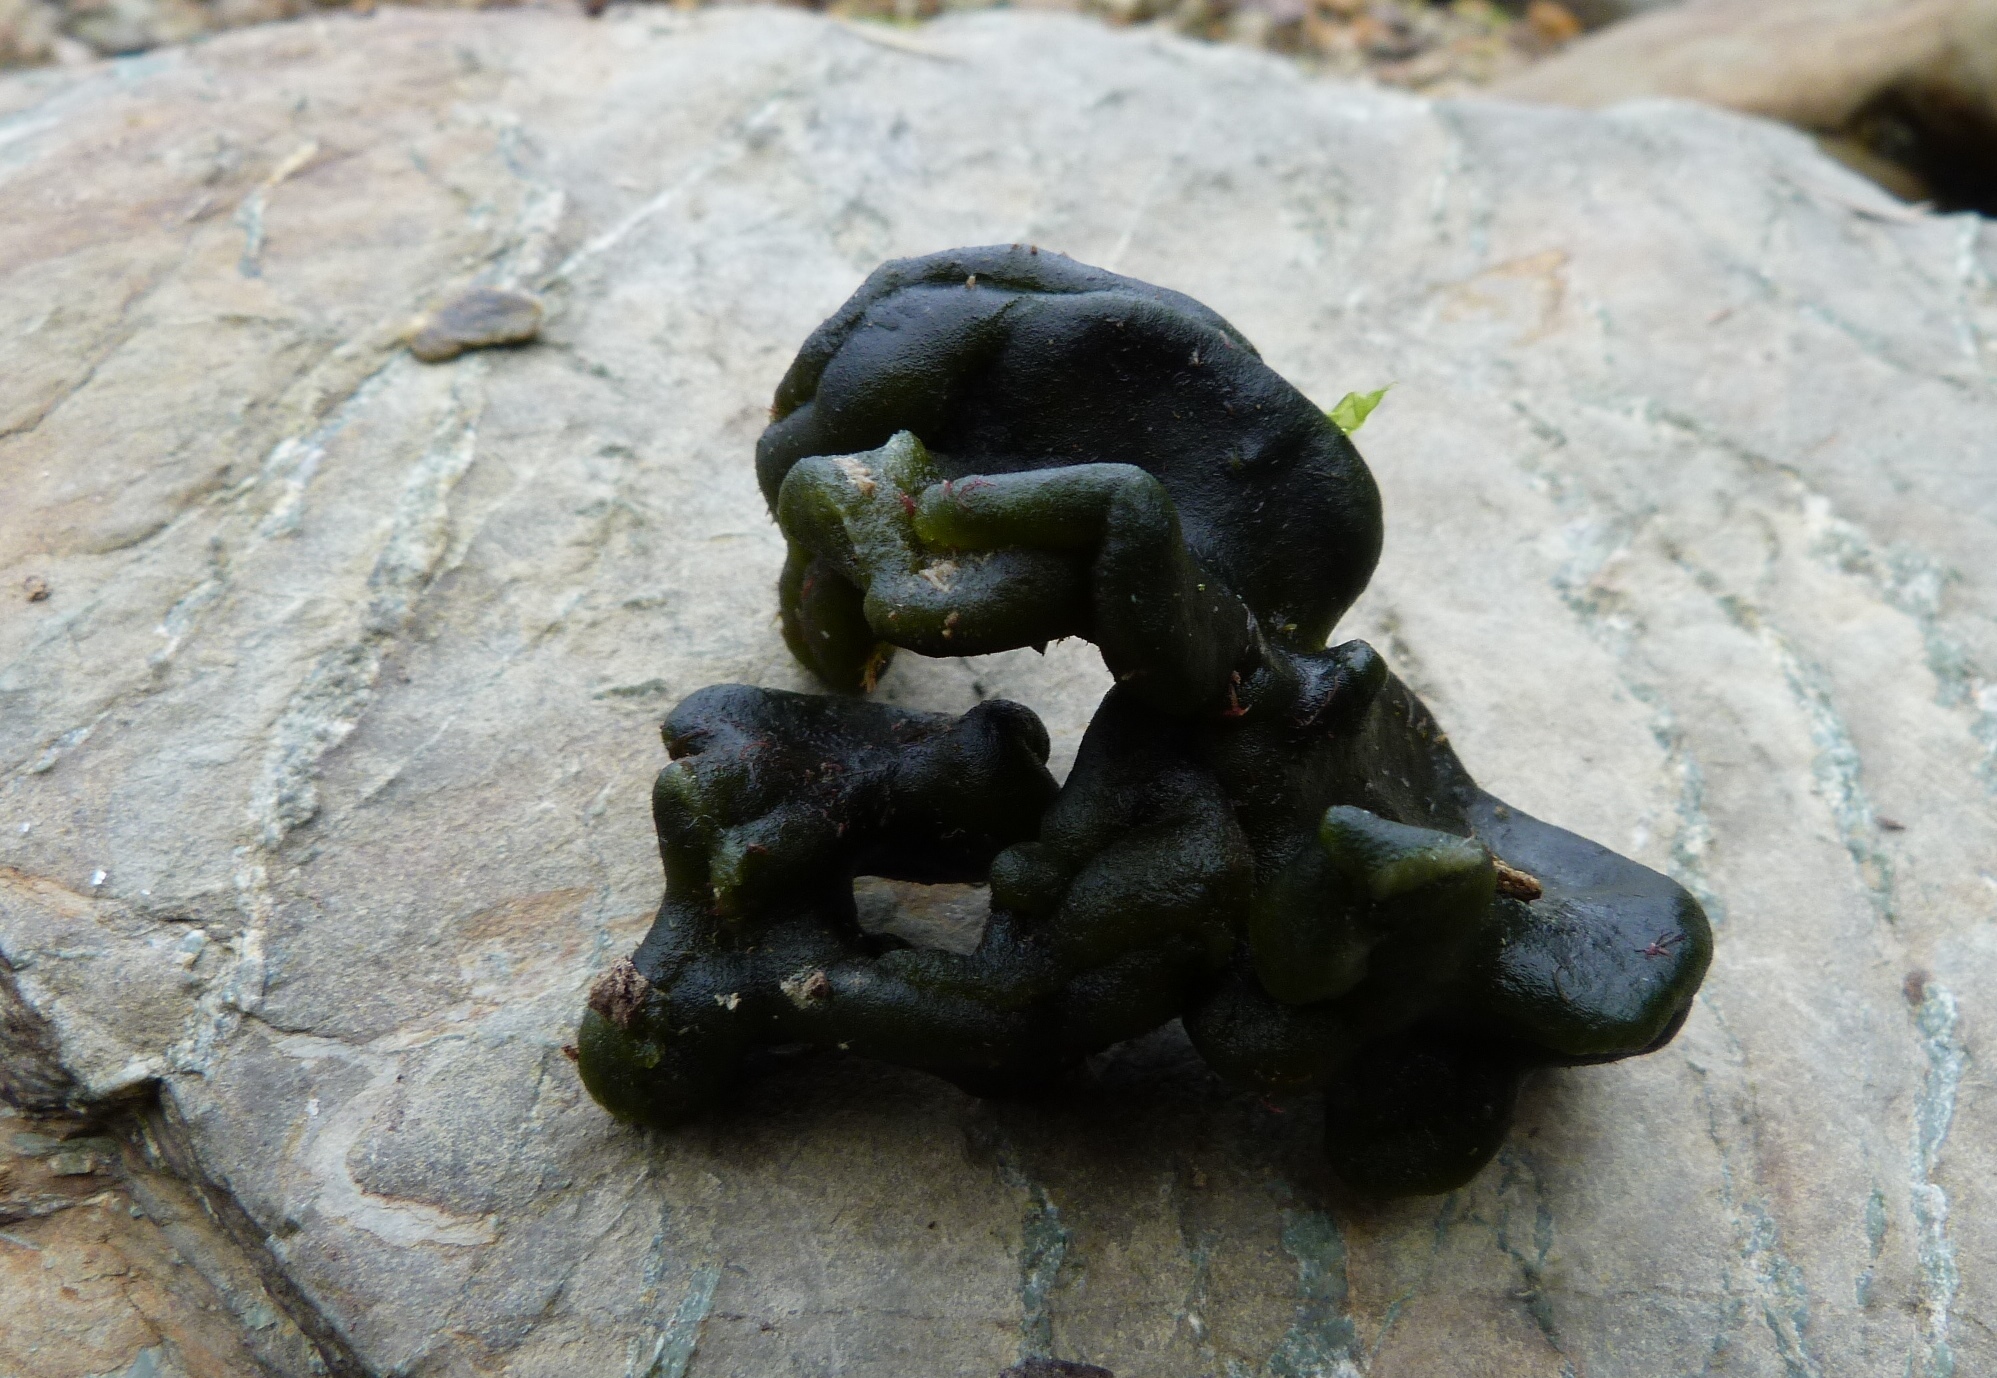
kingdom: Plantae
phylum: Chlorophyta
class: Ulvophyceae
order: Bryopsidales
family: Codiaceae
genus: Codium
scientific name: Codium convolutum
